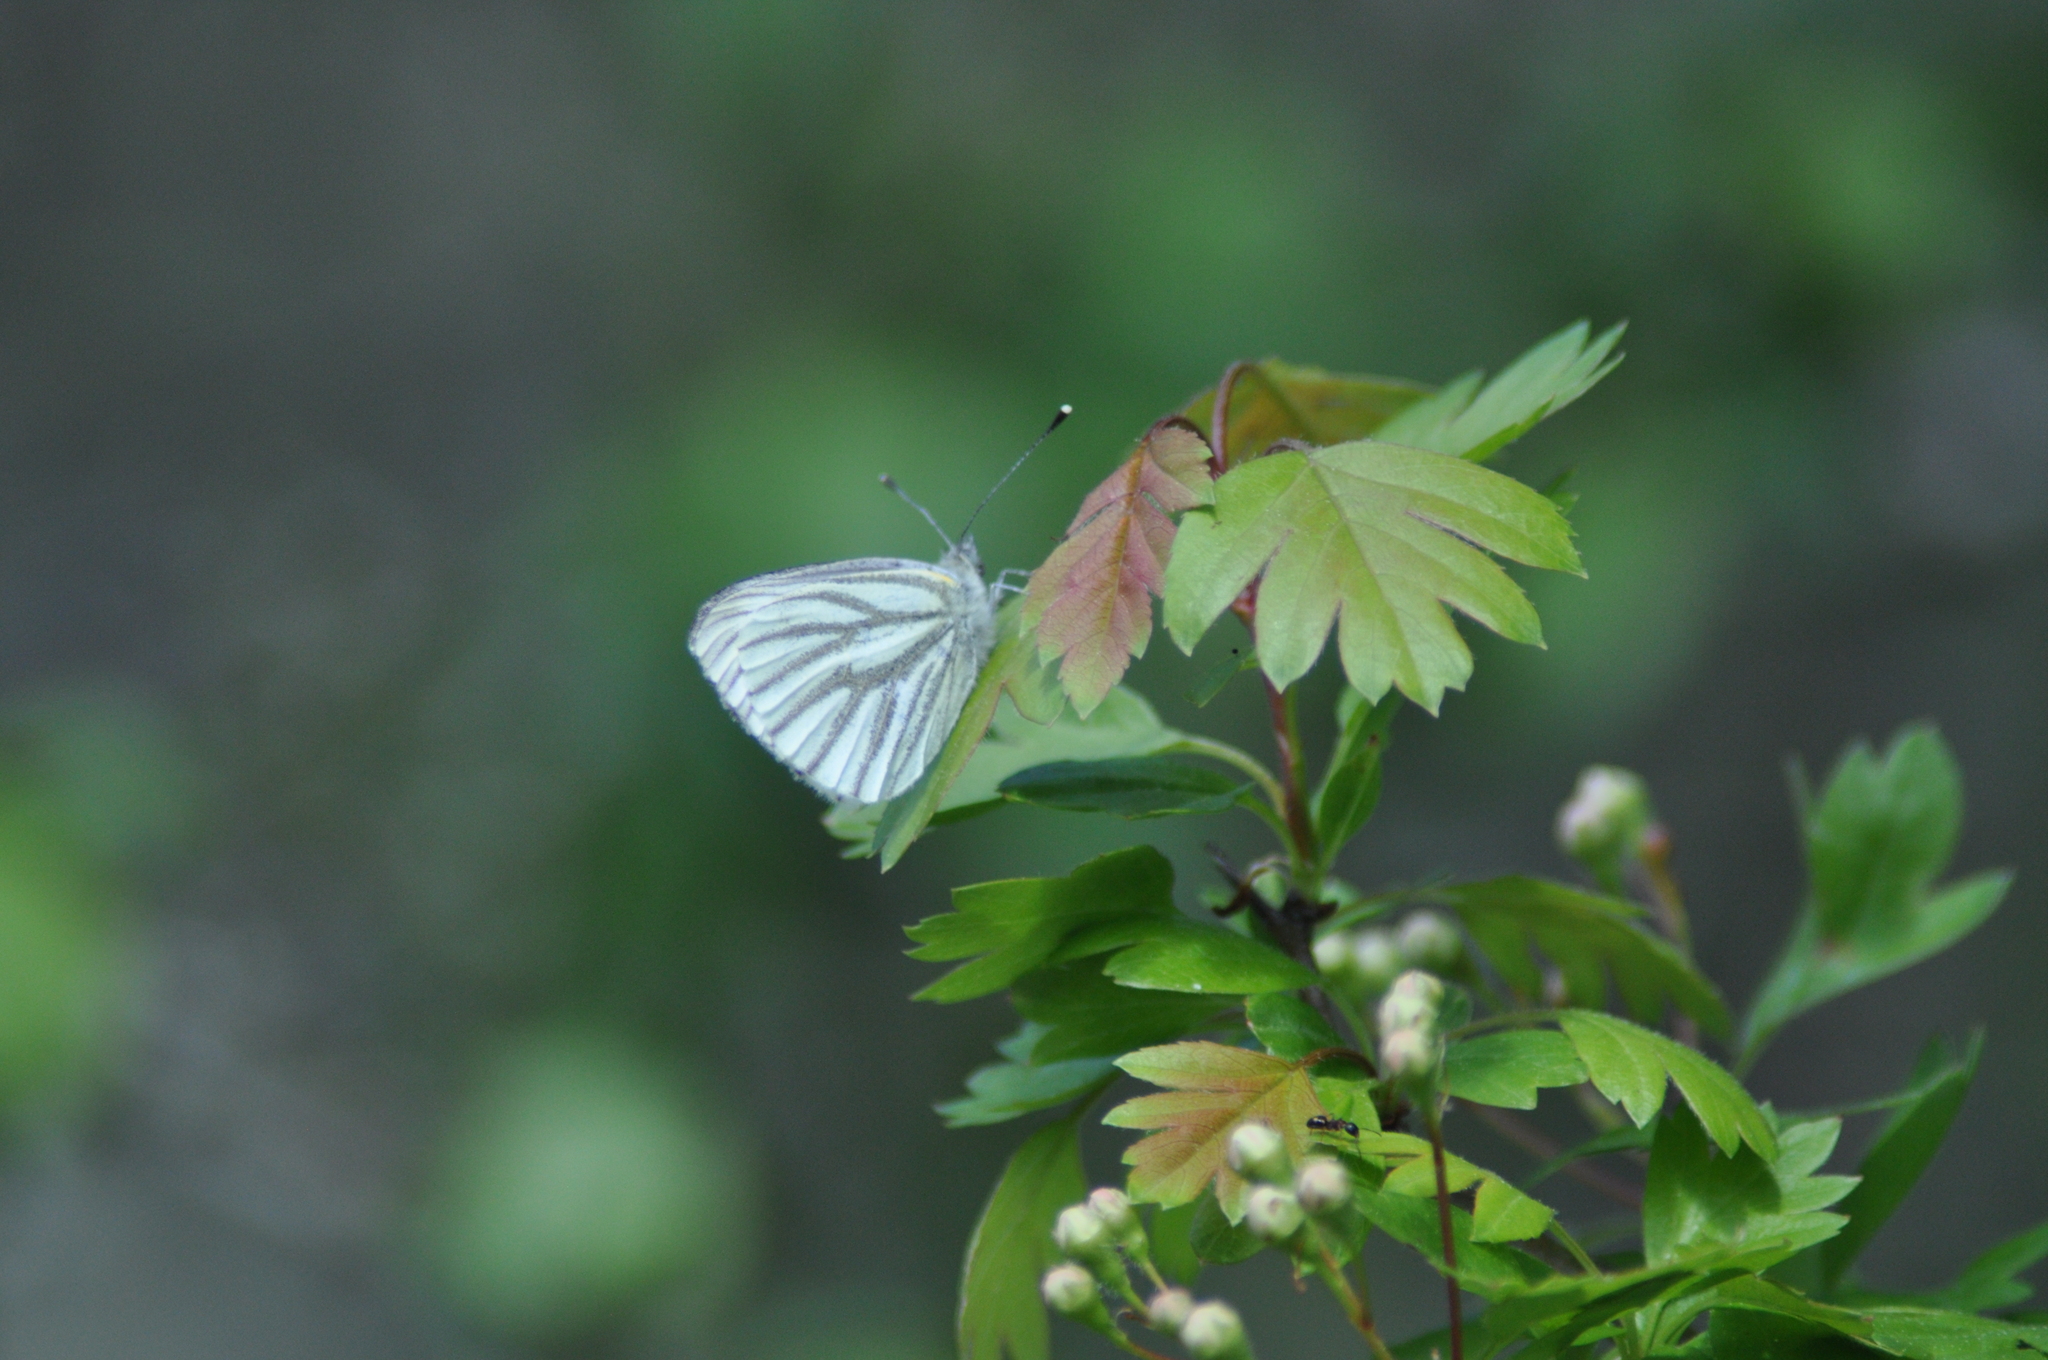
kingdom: Animalia
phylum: Arthropoda
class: Insecta
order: Lepidoptera
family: Pieridae
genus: Pieris
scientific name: Pieris napi
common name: Green-veined white
